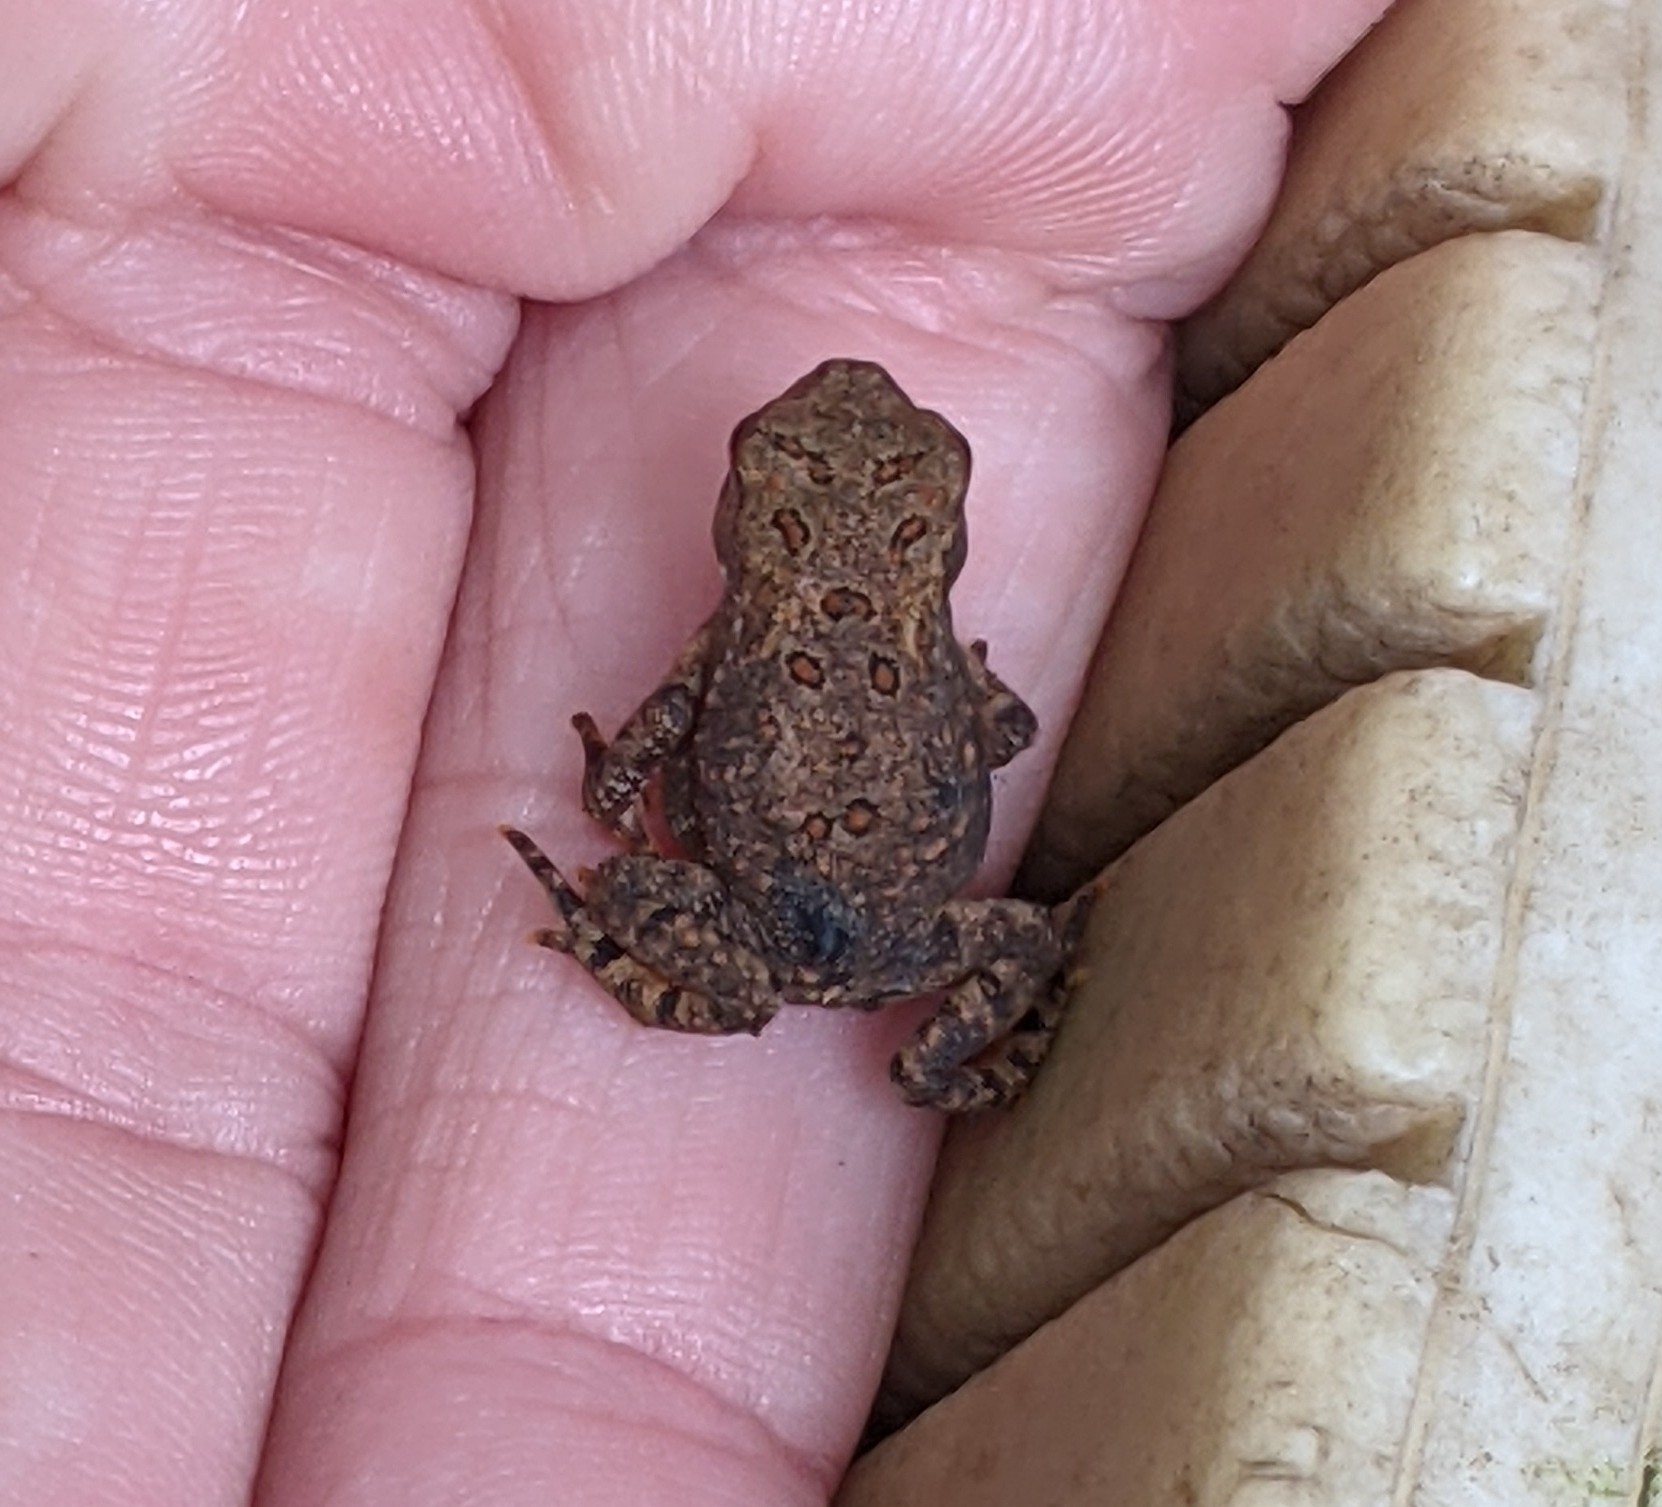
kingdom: Animalia
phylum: Chordata
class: Amphibia
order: Anura
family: Bufonidae
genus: Anaxyrus
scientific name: Anaxyrus americanus
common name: American toad
